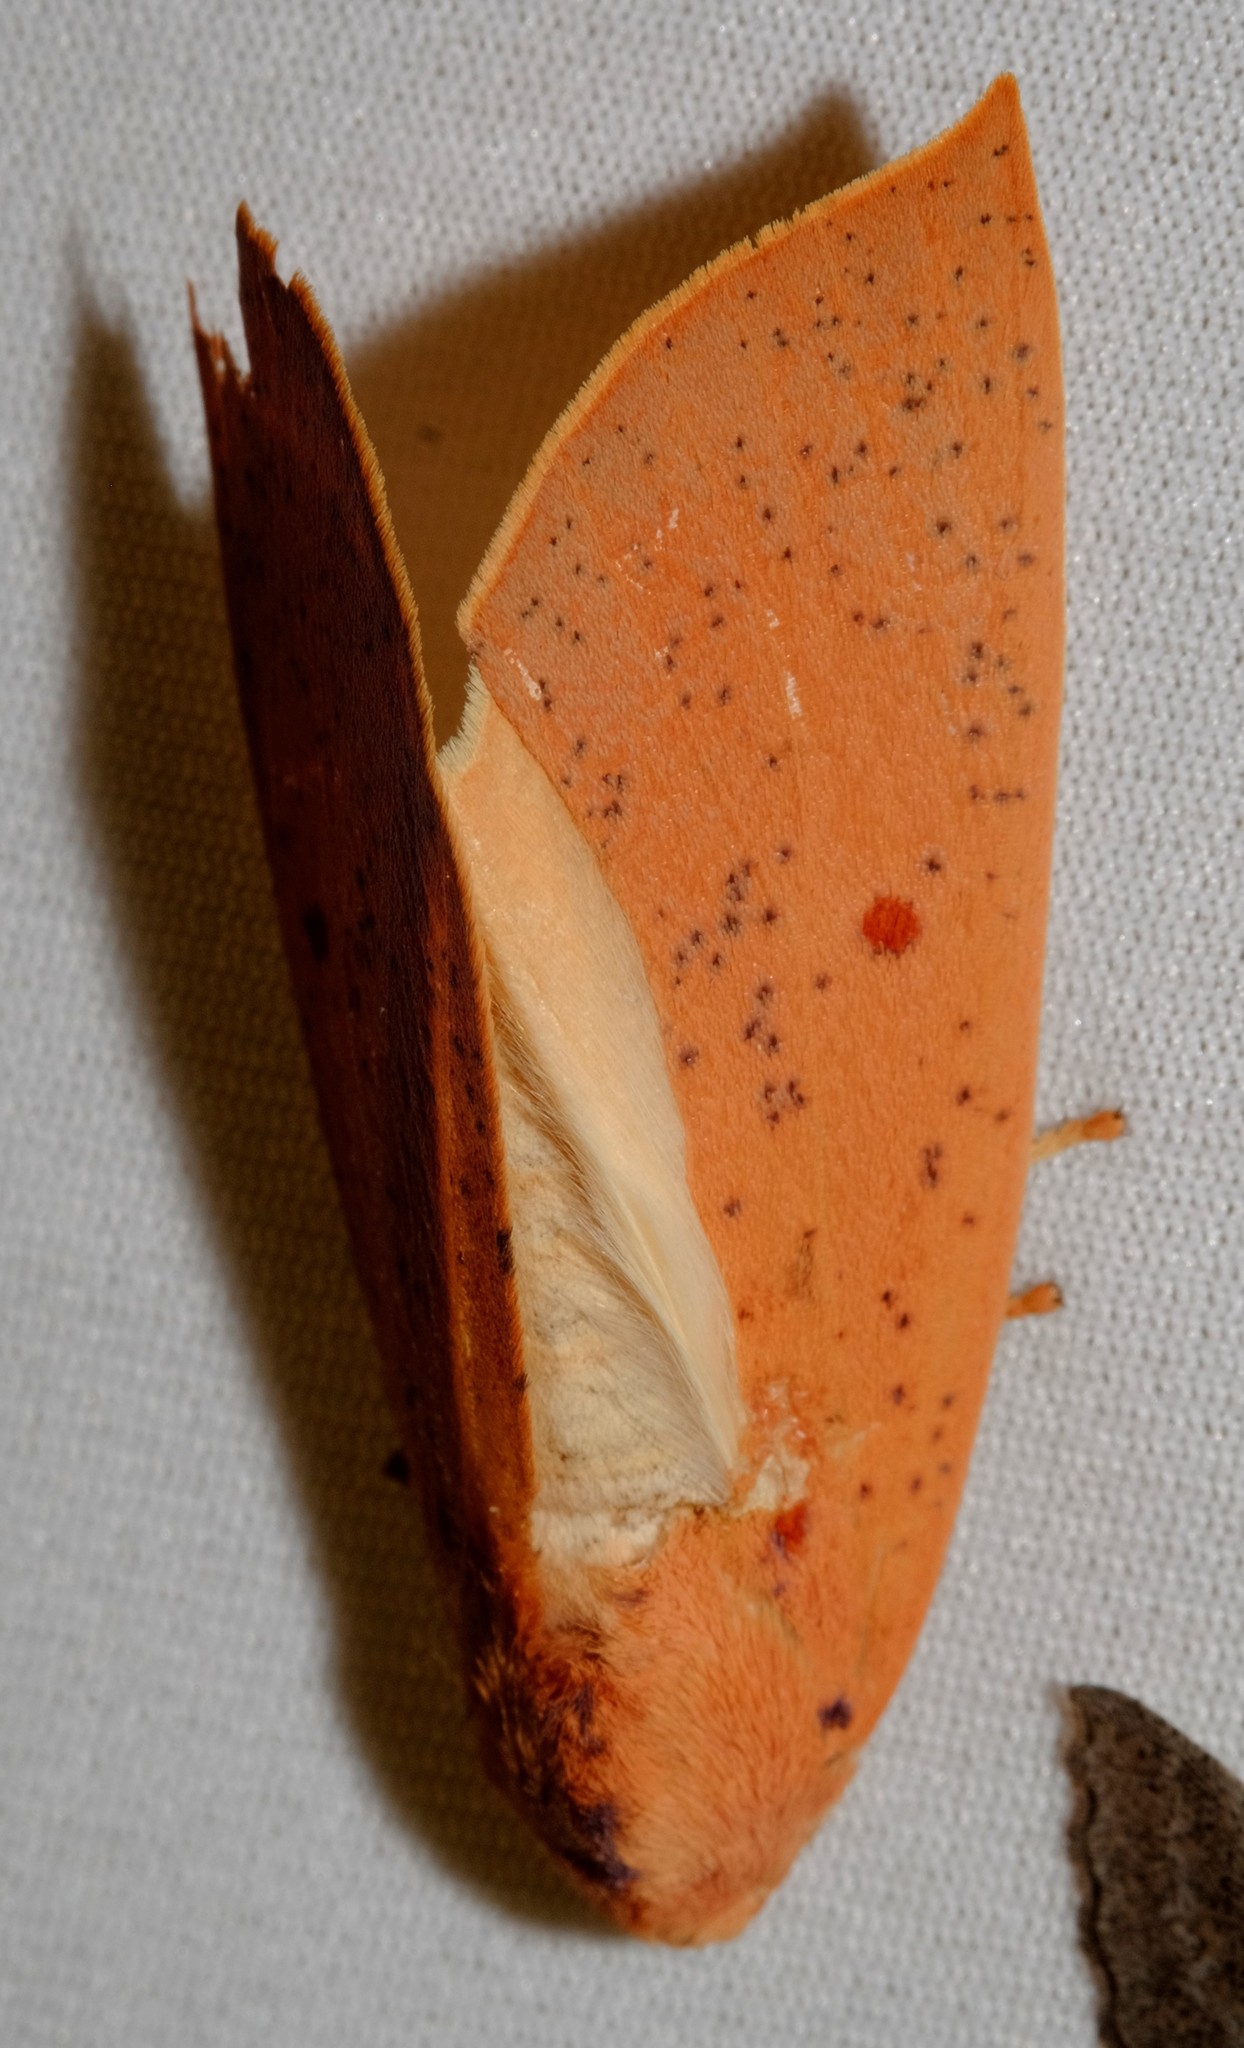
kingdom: Animalia
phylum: Arthropoda
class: Insecta
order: Lepidoptera
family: Geometridae
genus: Plesanemma
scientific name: Plesanemma fucata
